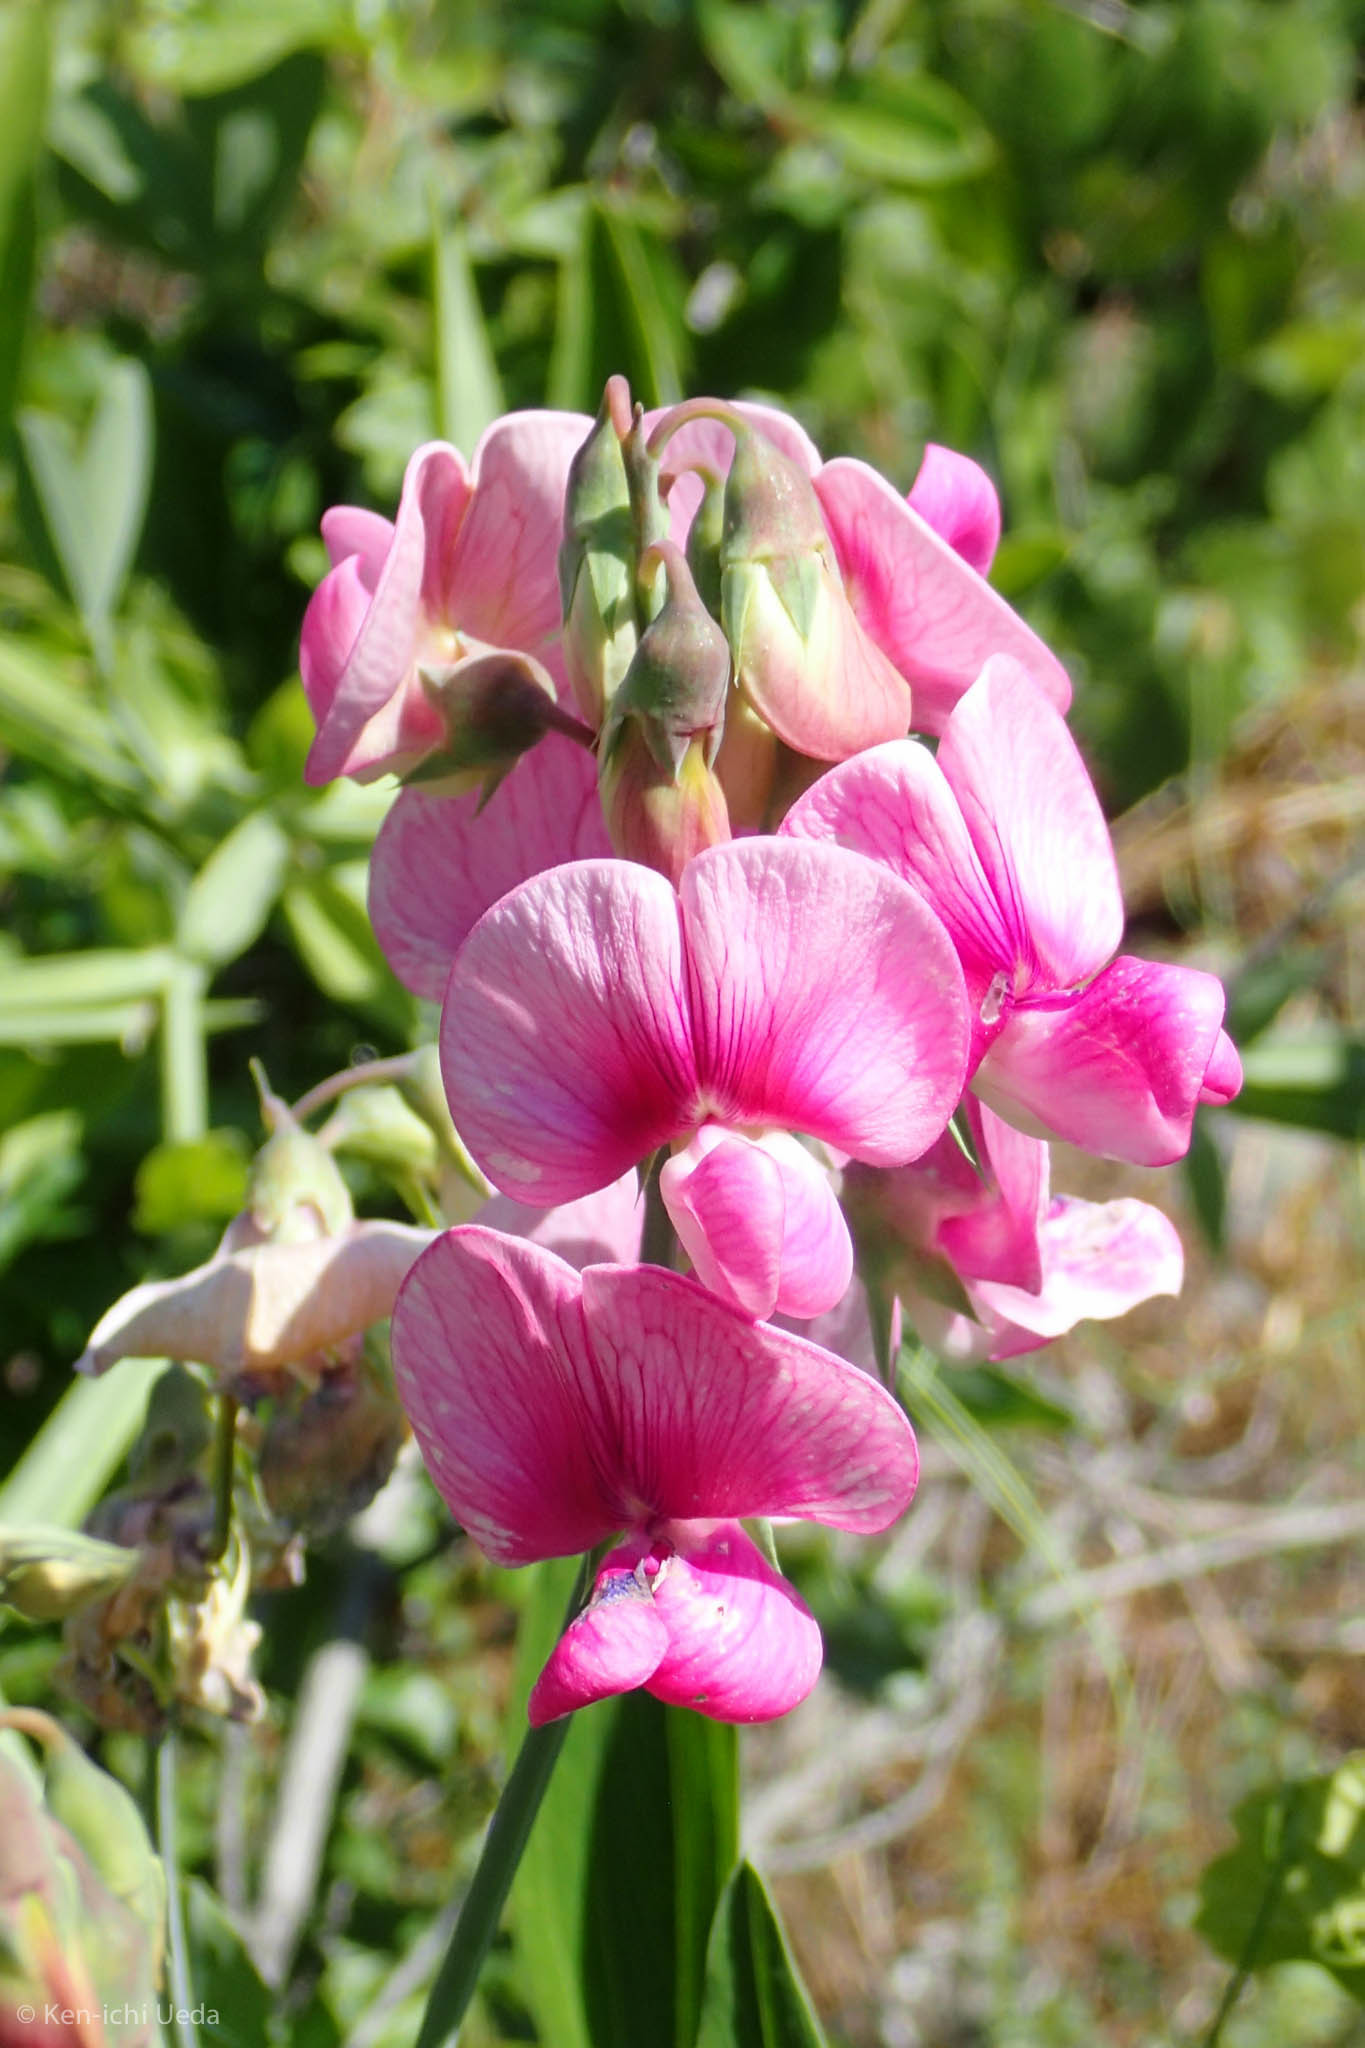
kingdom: Plantae
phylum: Tracheophyta
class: Magnoliopsida
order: Fabales
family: Fabaceae
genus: Lathyrus
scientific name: Lathyrus latifolius
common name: Perennial pea
